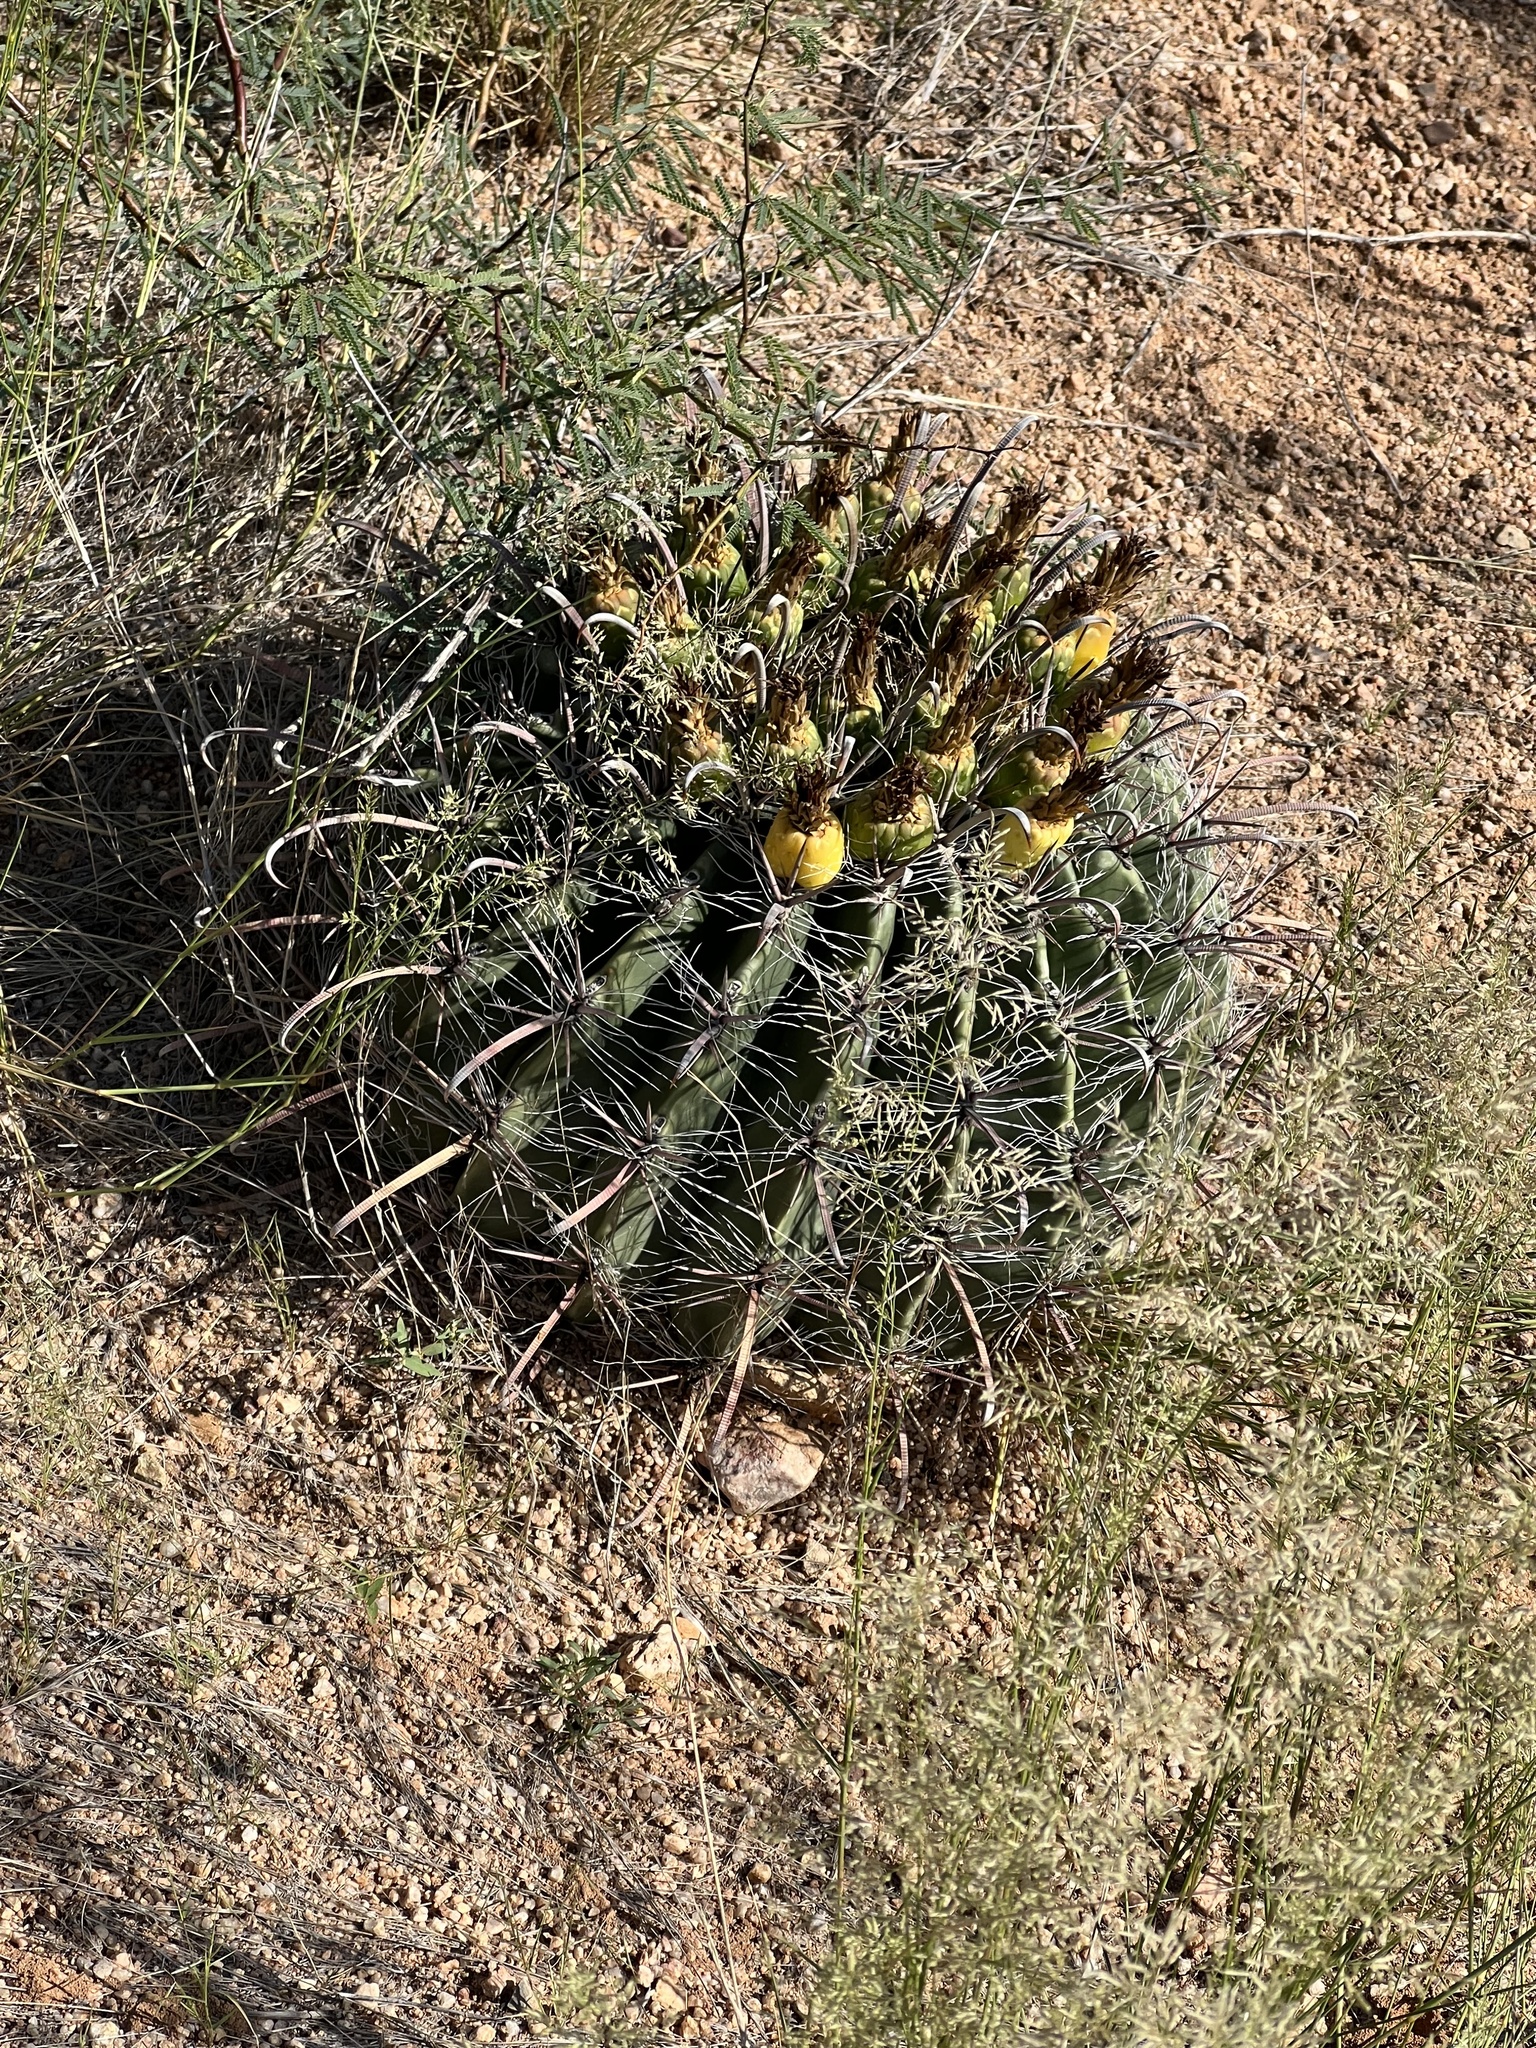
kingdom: Plantae
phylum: Tracheophyta
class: Magnoliopsida
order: Caryophyllales
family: Cactaceae
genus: Ferocactus
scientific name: Ferocactus wislizeni
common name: Candy barrel cactus
